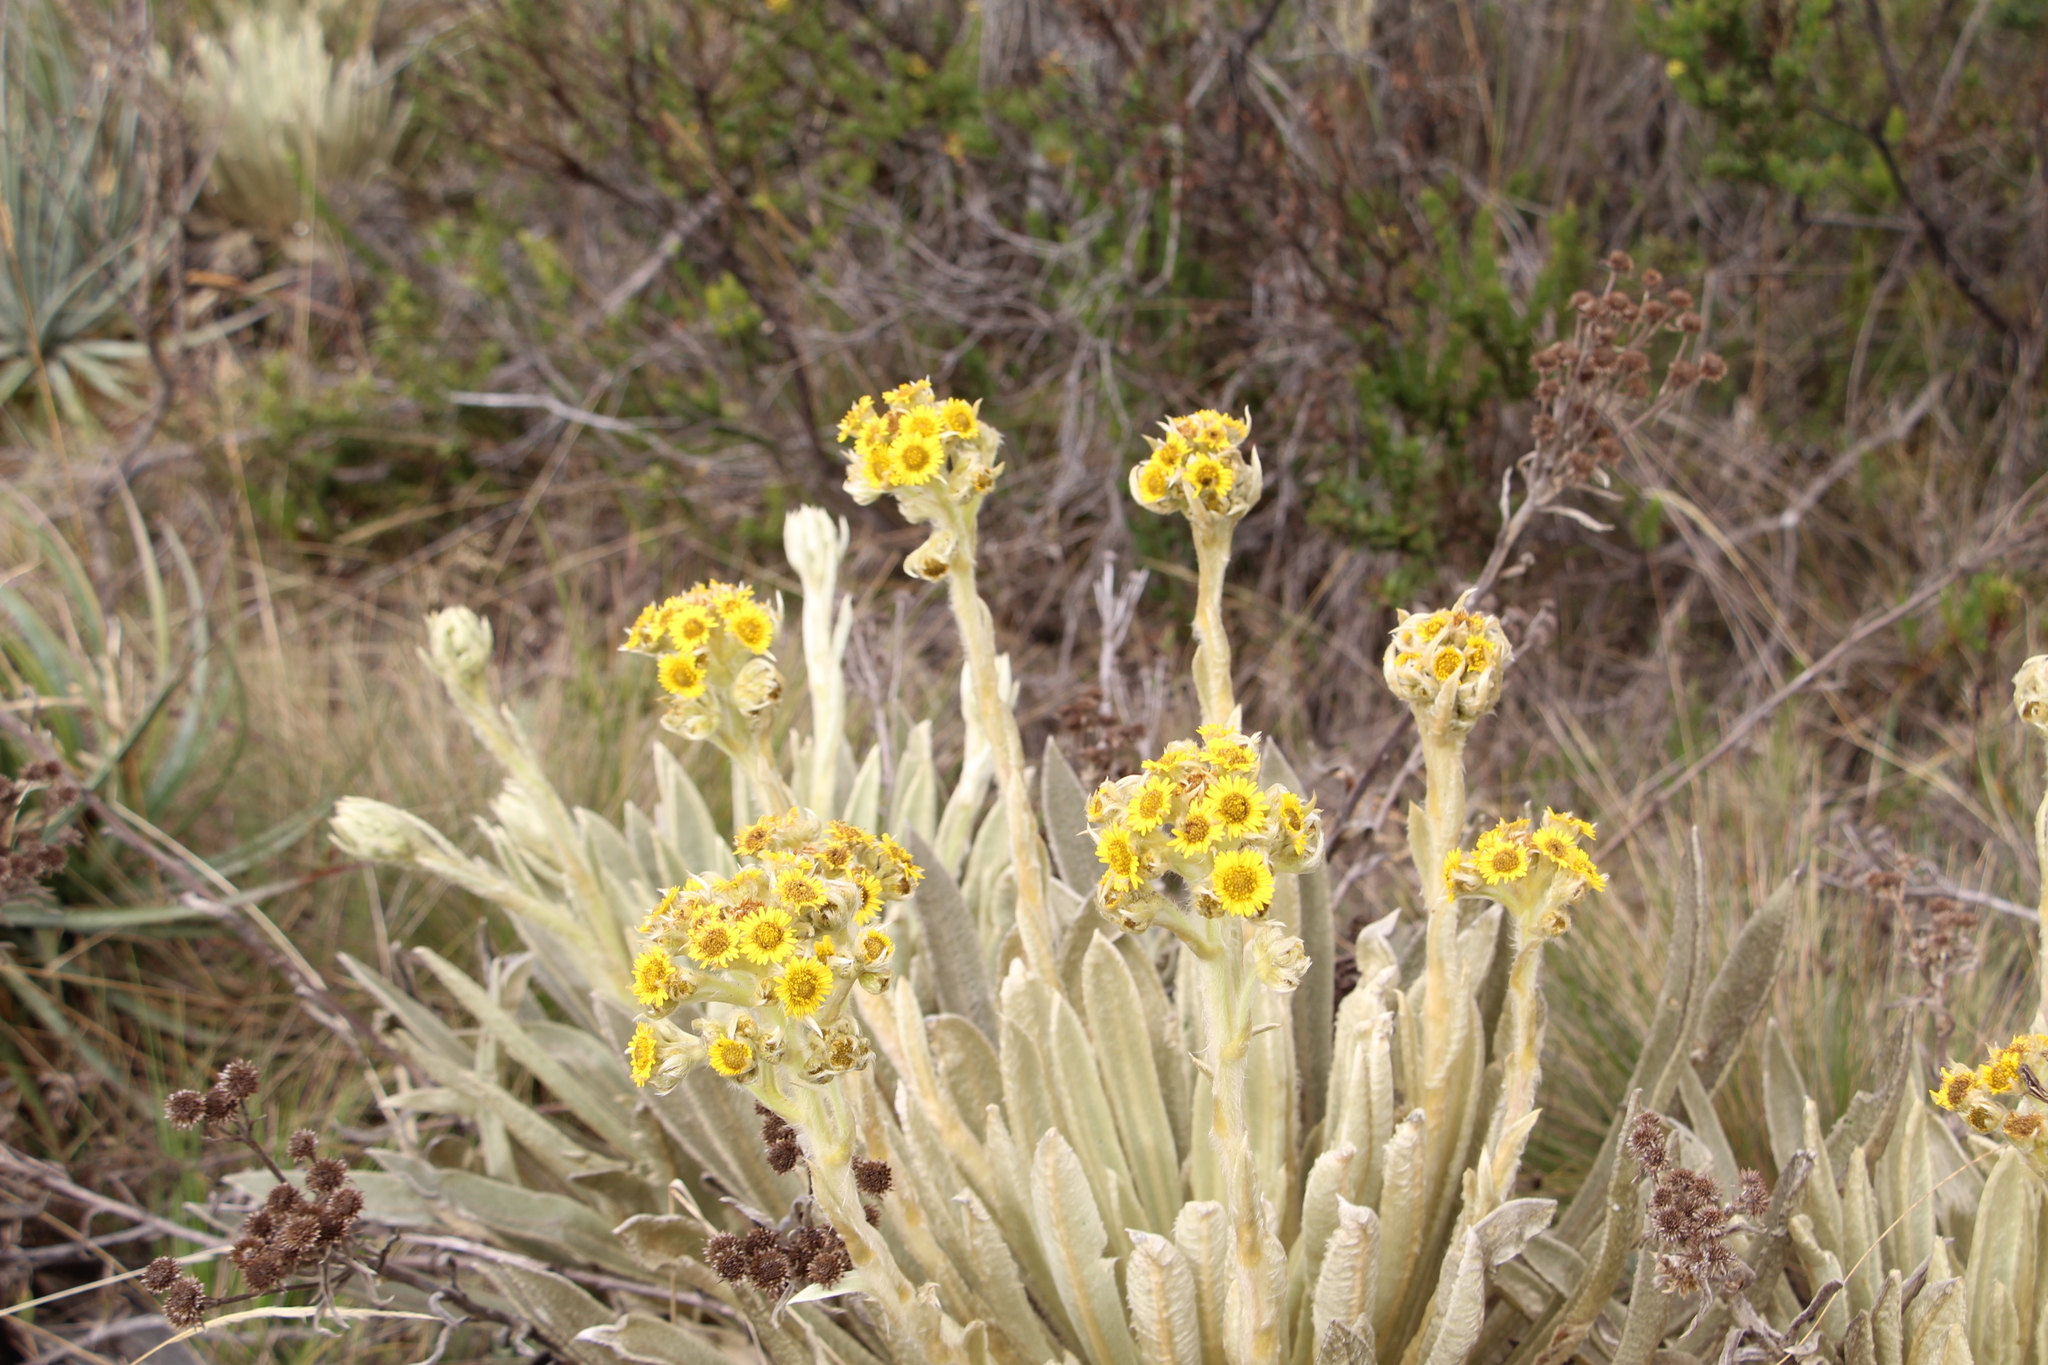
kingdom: Plantae
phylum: Tracheophyta
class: Magnoliopsida
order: Asterales
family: Asteraceae
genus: Espeletia
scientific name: Espeletia muiska
